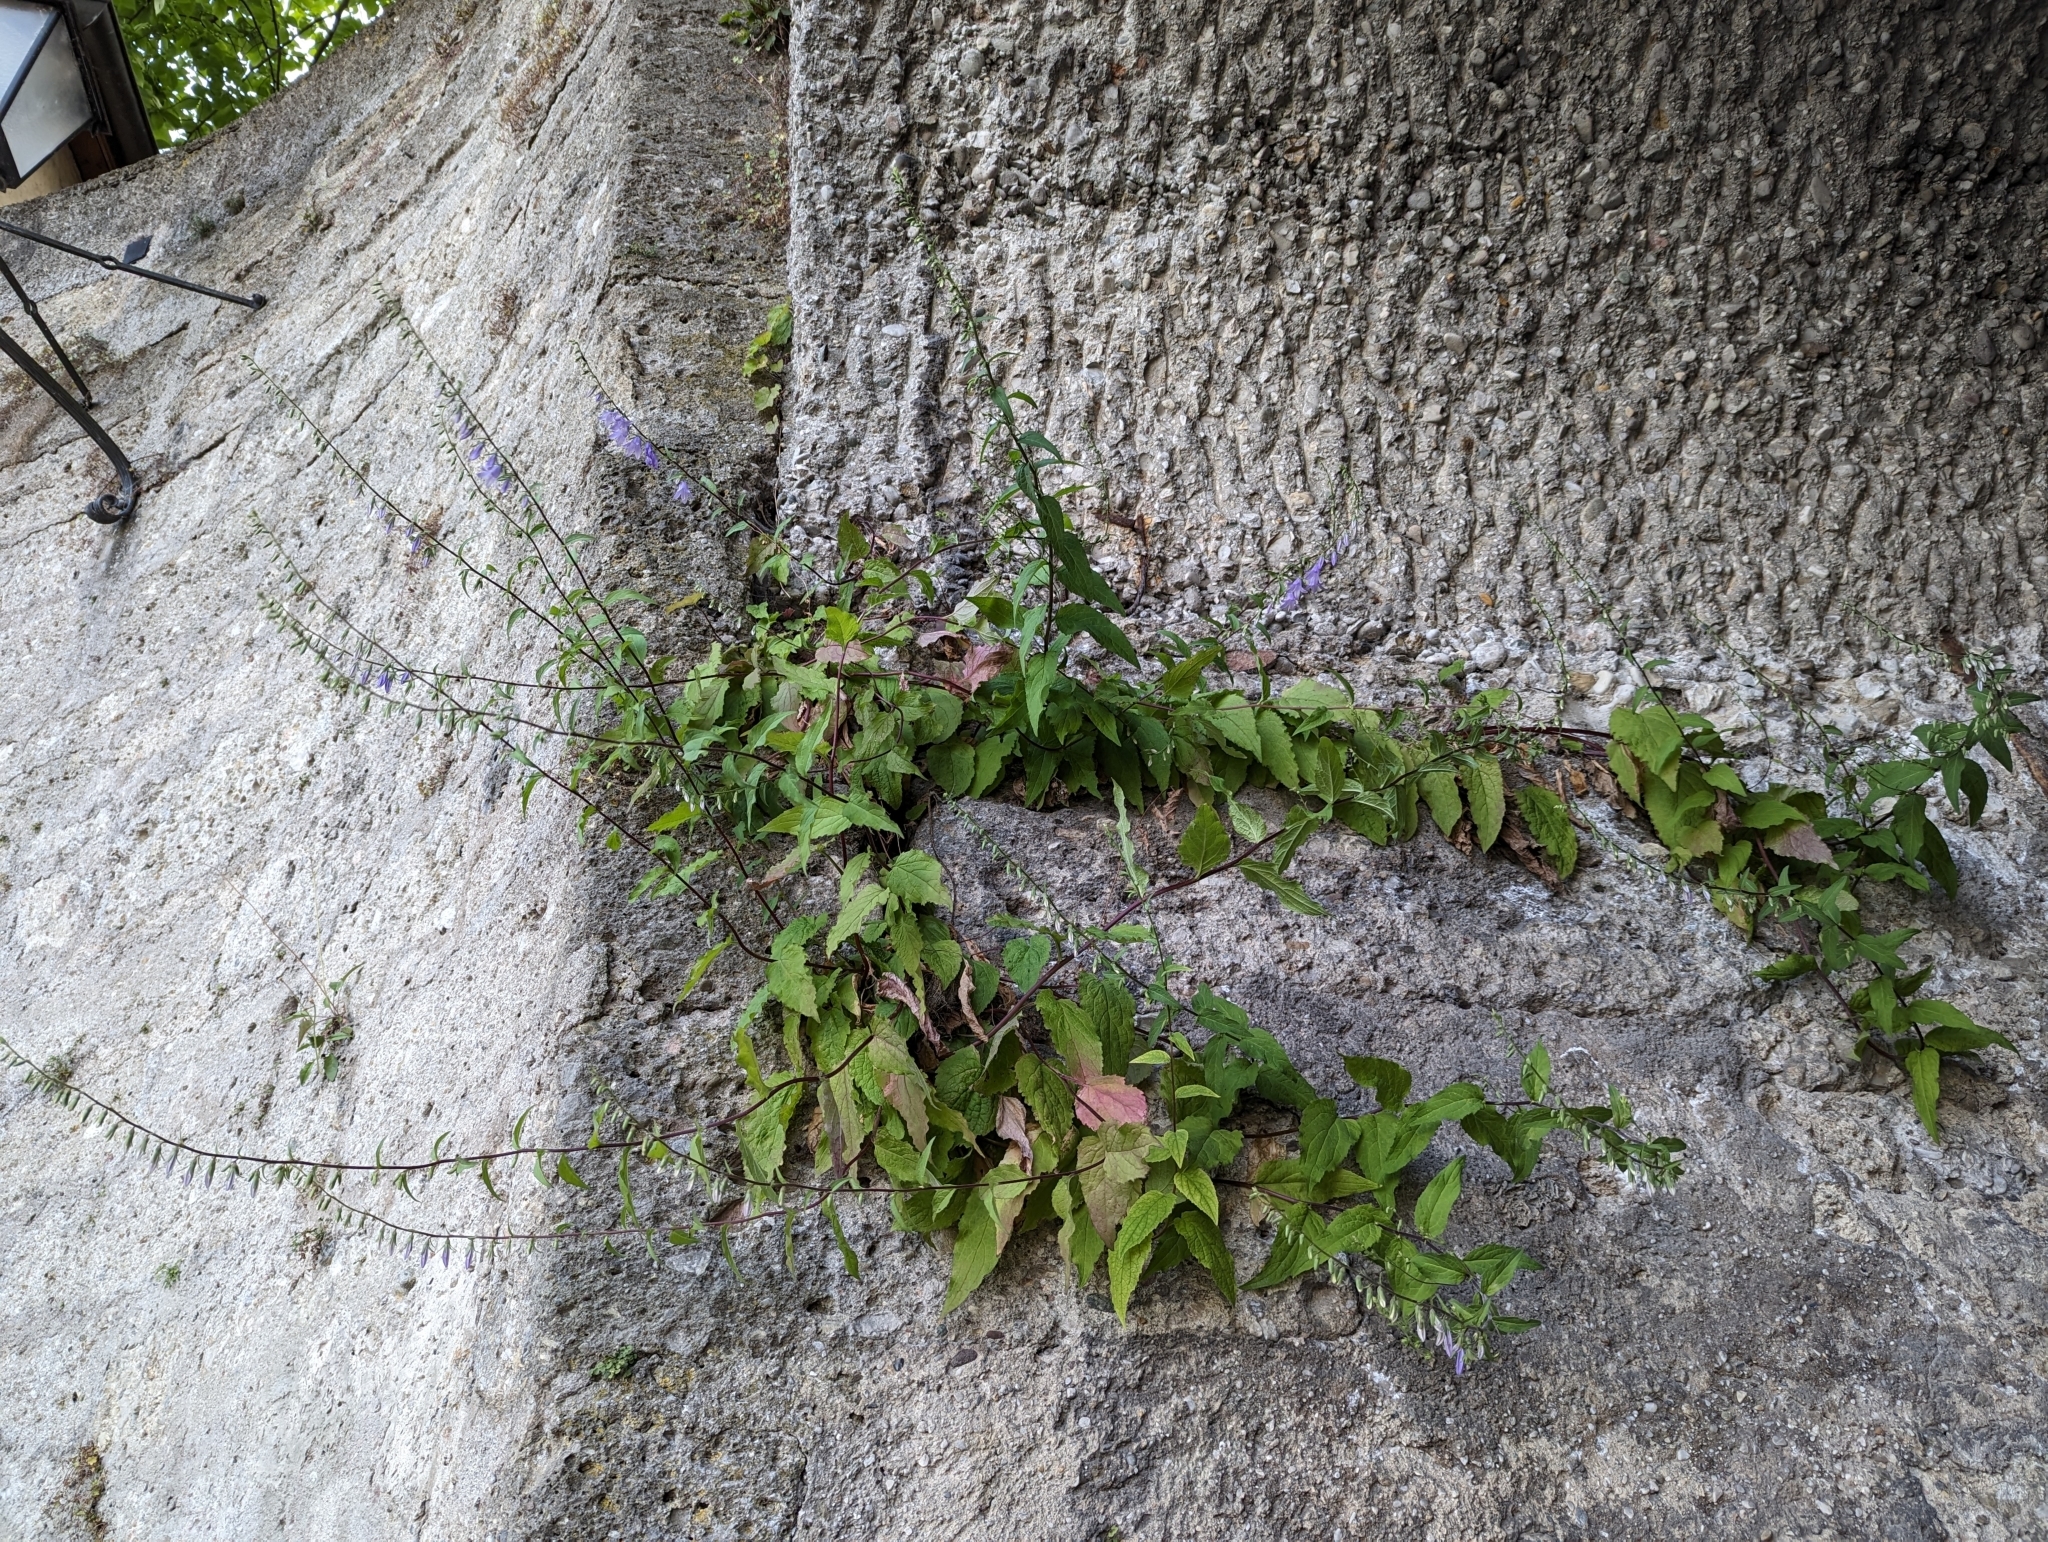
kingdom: Plantae
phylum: Tracheophyta
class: Magnoliopsida
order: Asterales
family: Campanulaceae
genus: Campanula
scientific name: Campanula rapunculoides
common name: Creeping bellflower
